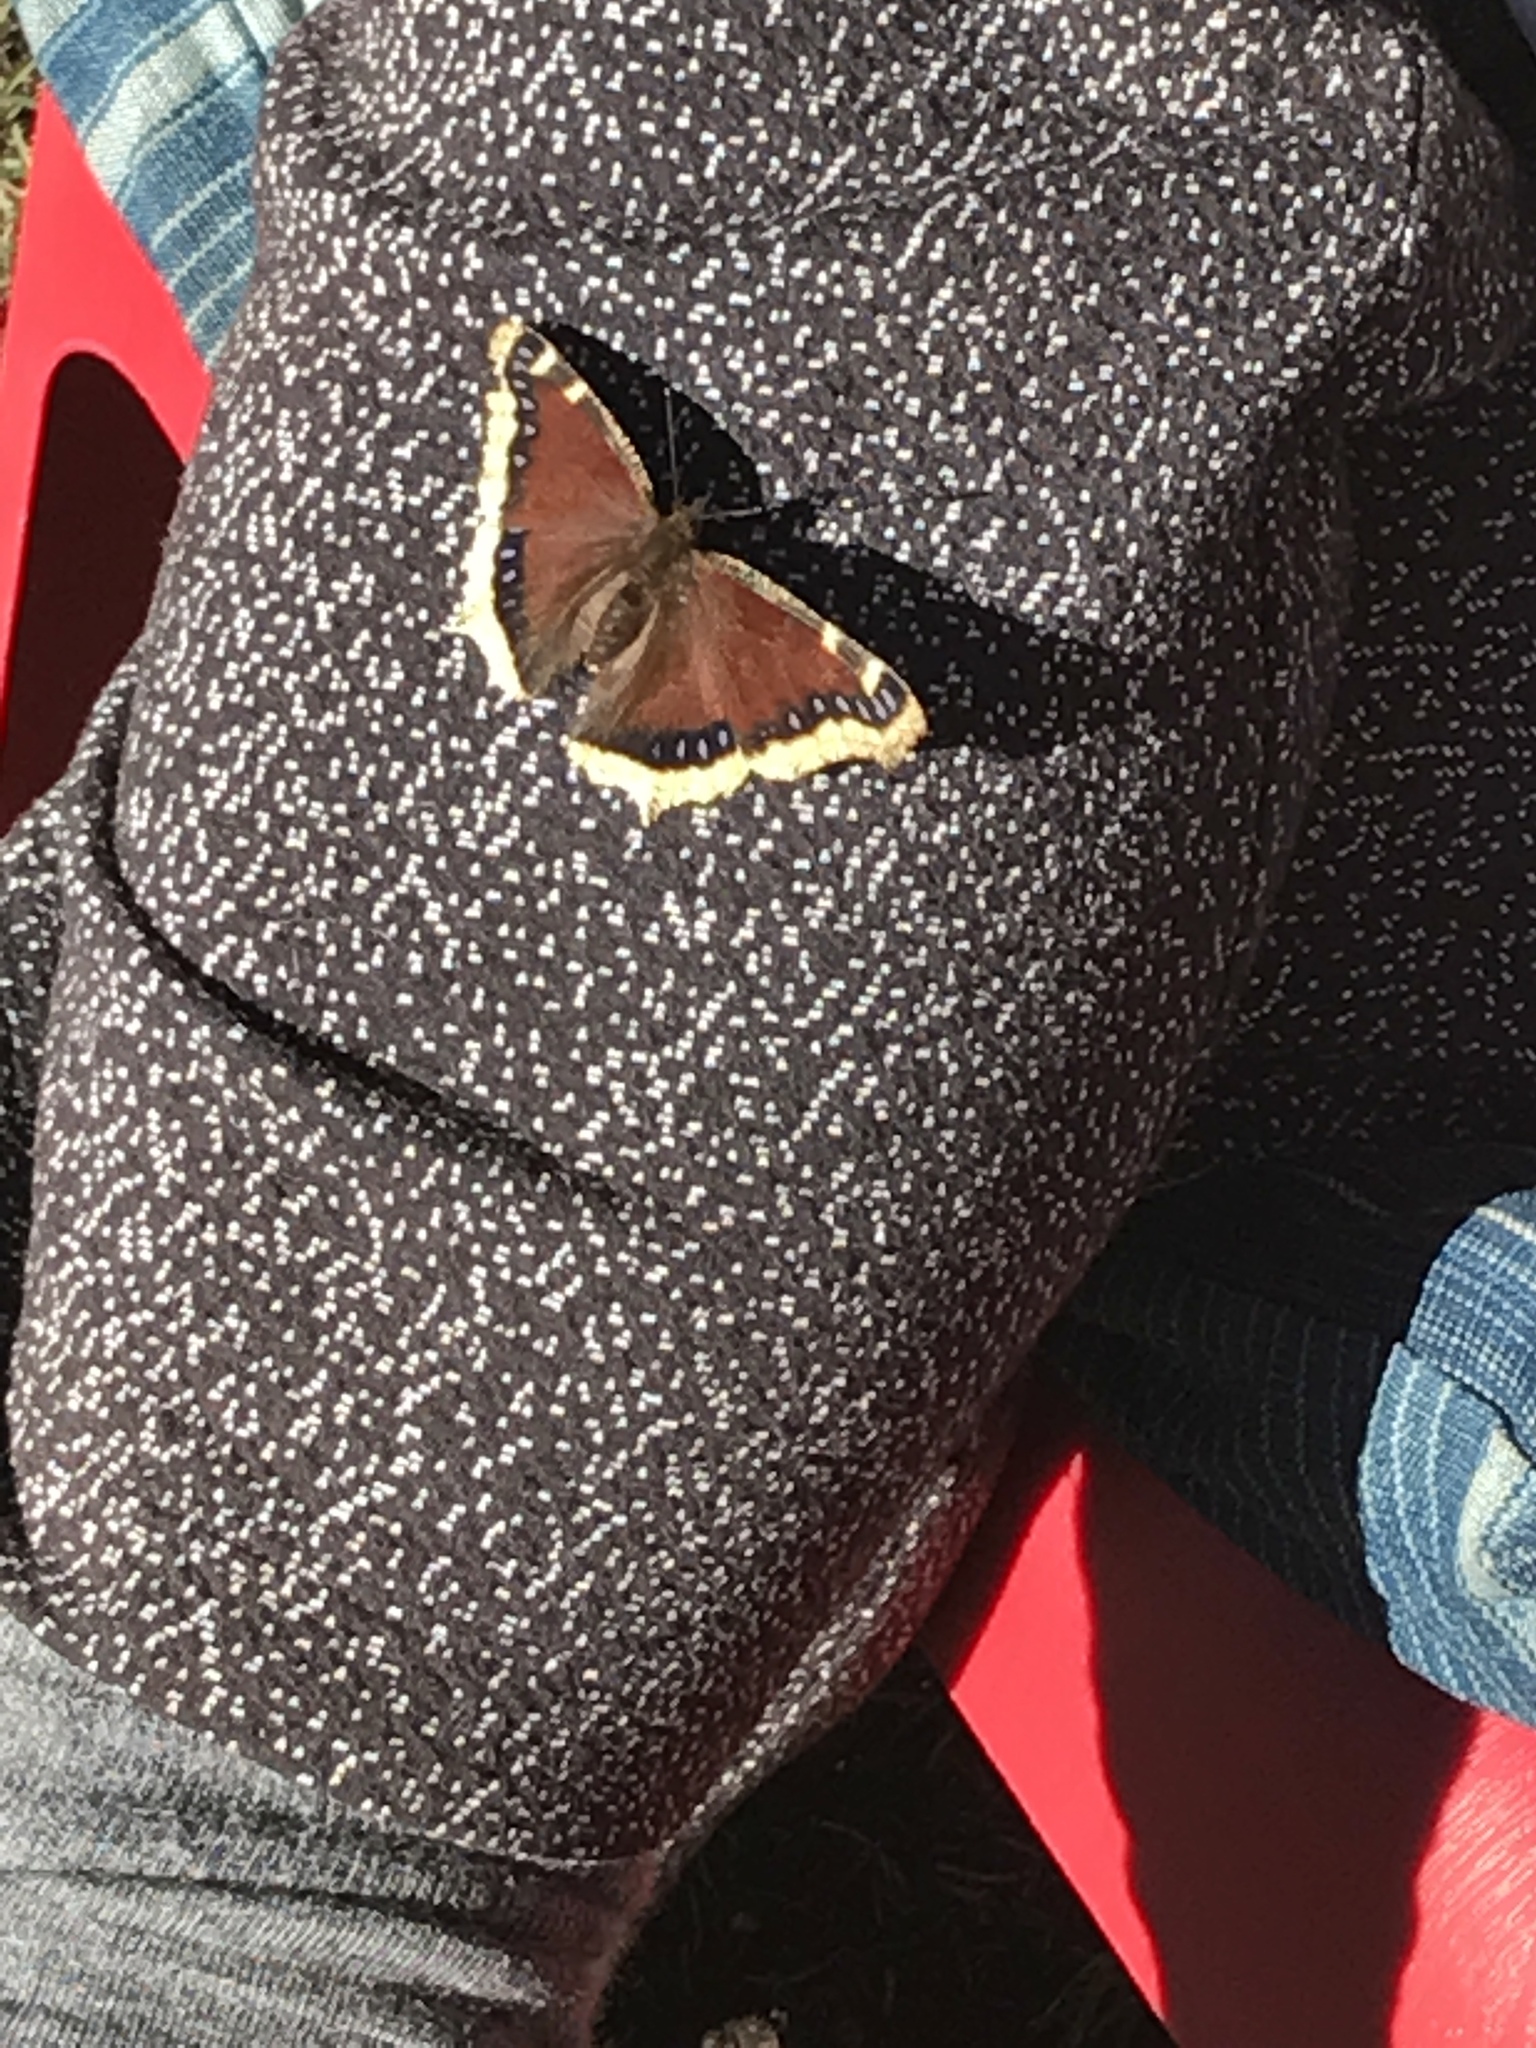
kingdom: Animalia
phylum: Arthropoda
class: Insecta
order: Lepidoptera
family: Nymphalidae
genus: Nymphalis
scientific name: Nymphalis antiopa
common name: Camberwell beauty
